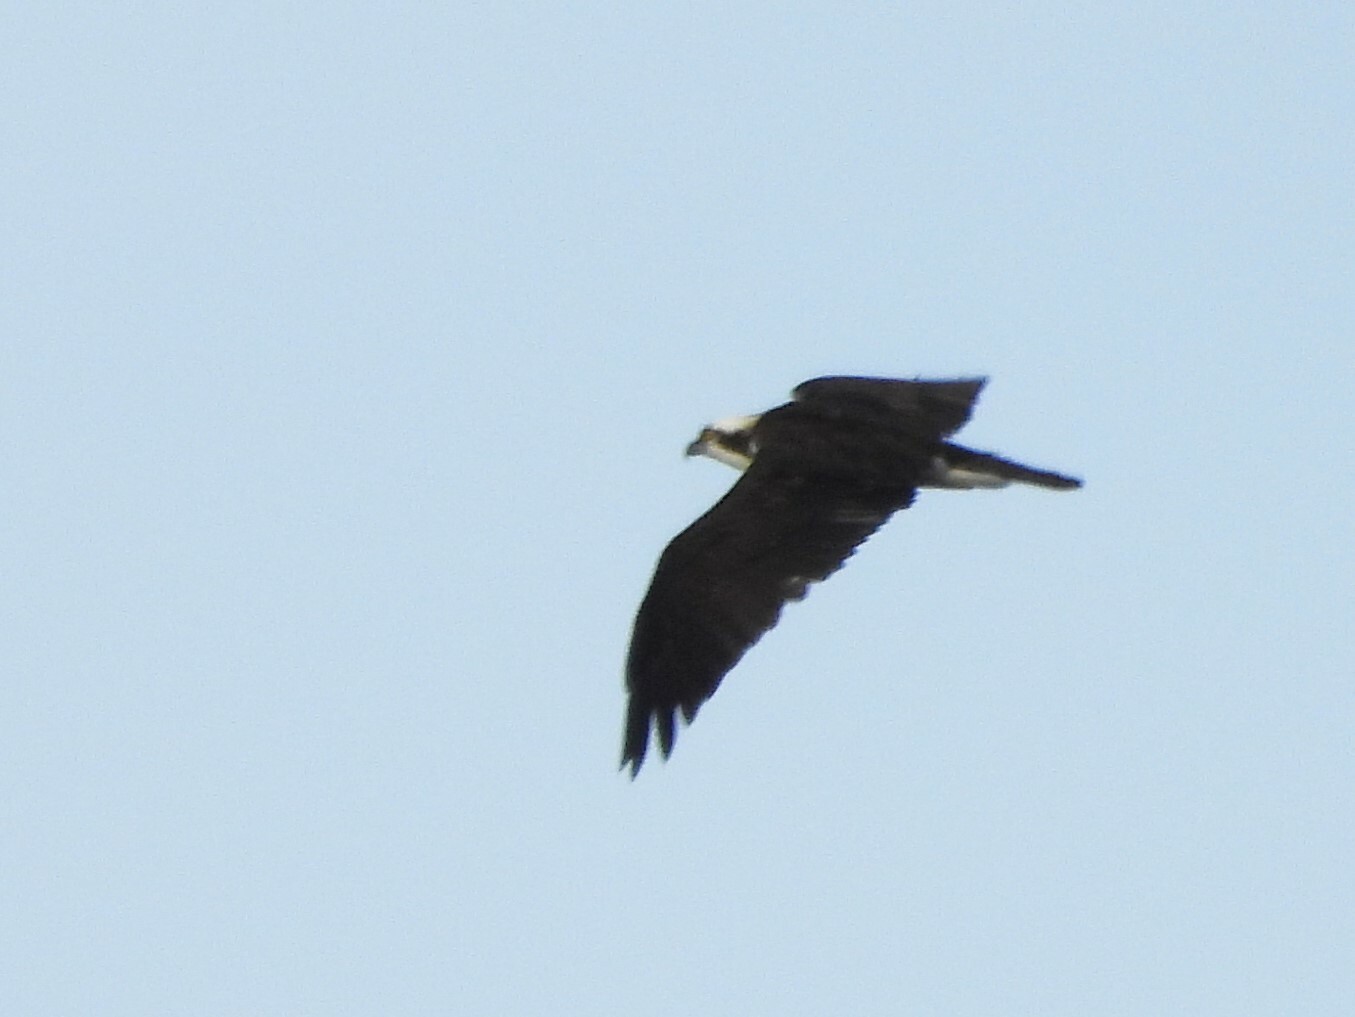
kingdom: Animalia
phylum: Chordata
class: Aves
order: Accipitriformes
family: Pandionidae
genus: Pandion
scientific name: Pandion haliaetus
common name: Osprey
